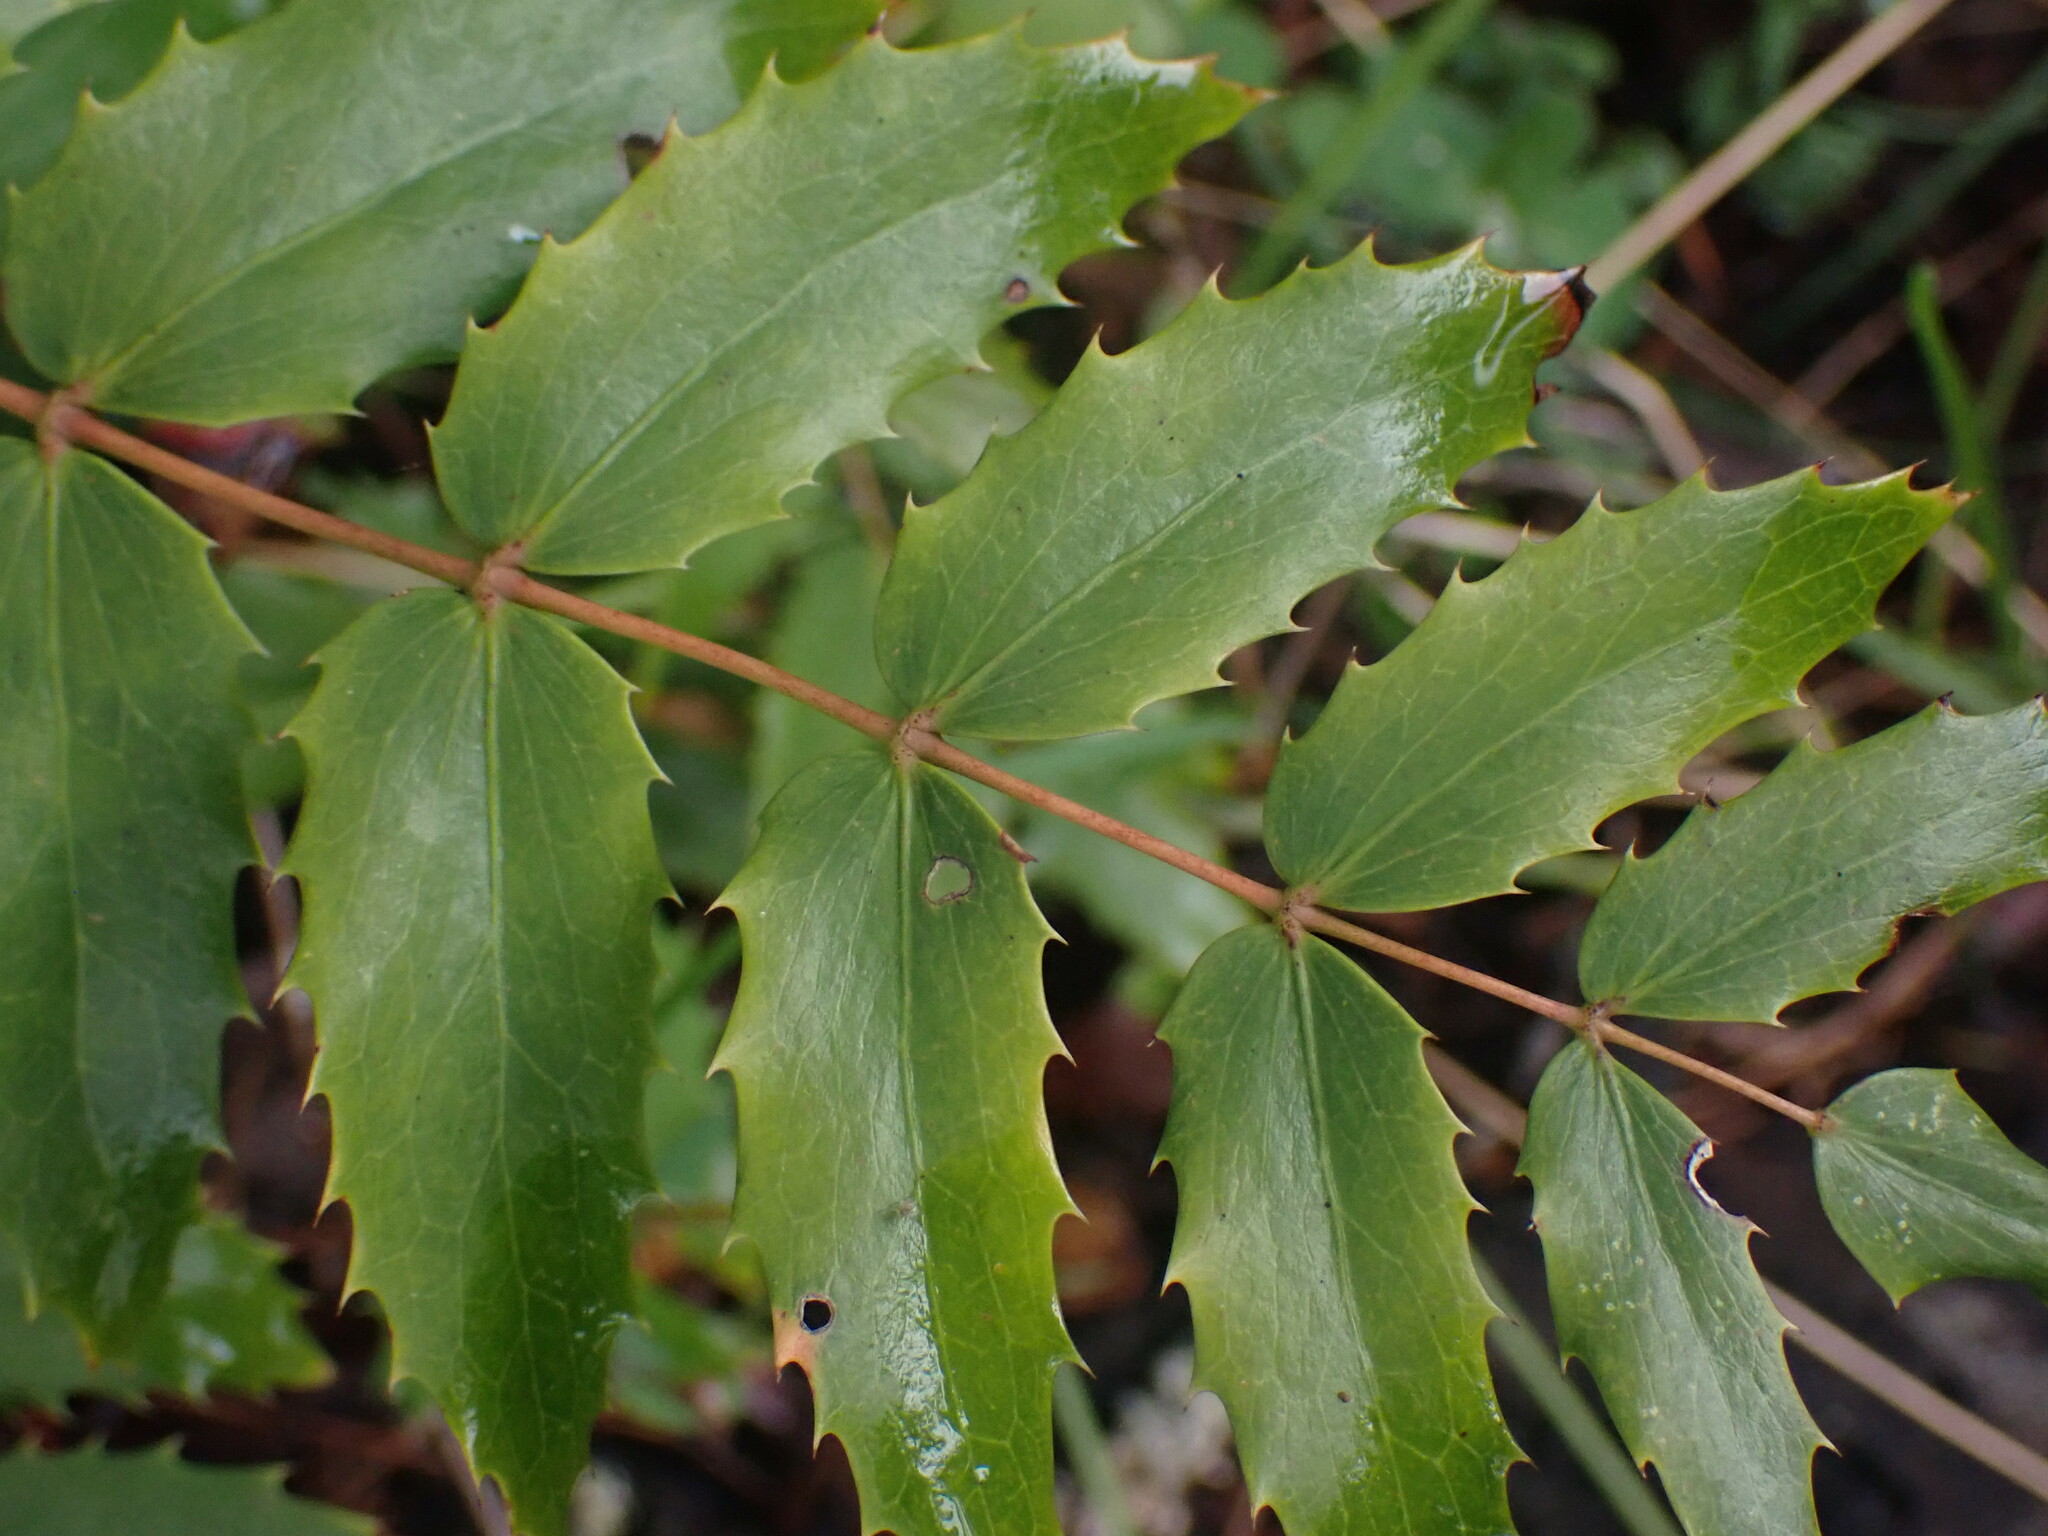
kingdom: Plantae
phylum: Tracheophyta
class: Magnoliopsida
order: Ranunculales
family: Berberidaceae
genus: Mahonia
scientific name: Mahonia nervosa
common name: Cascade oregon-grape
